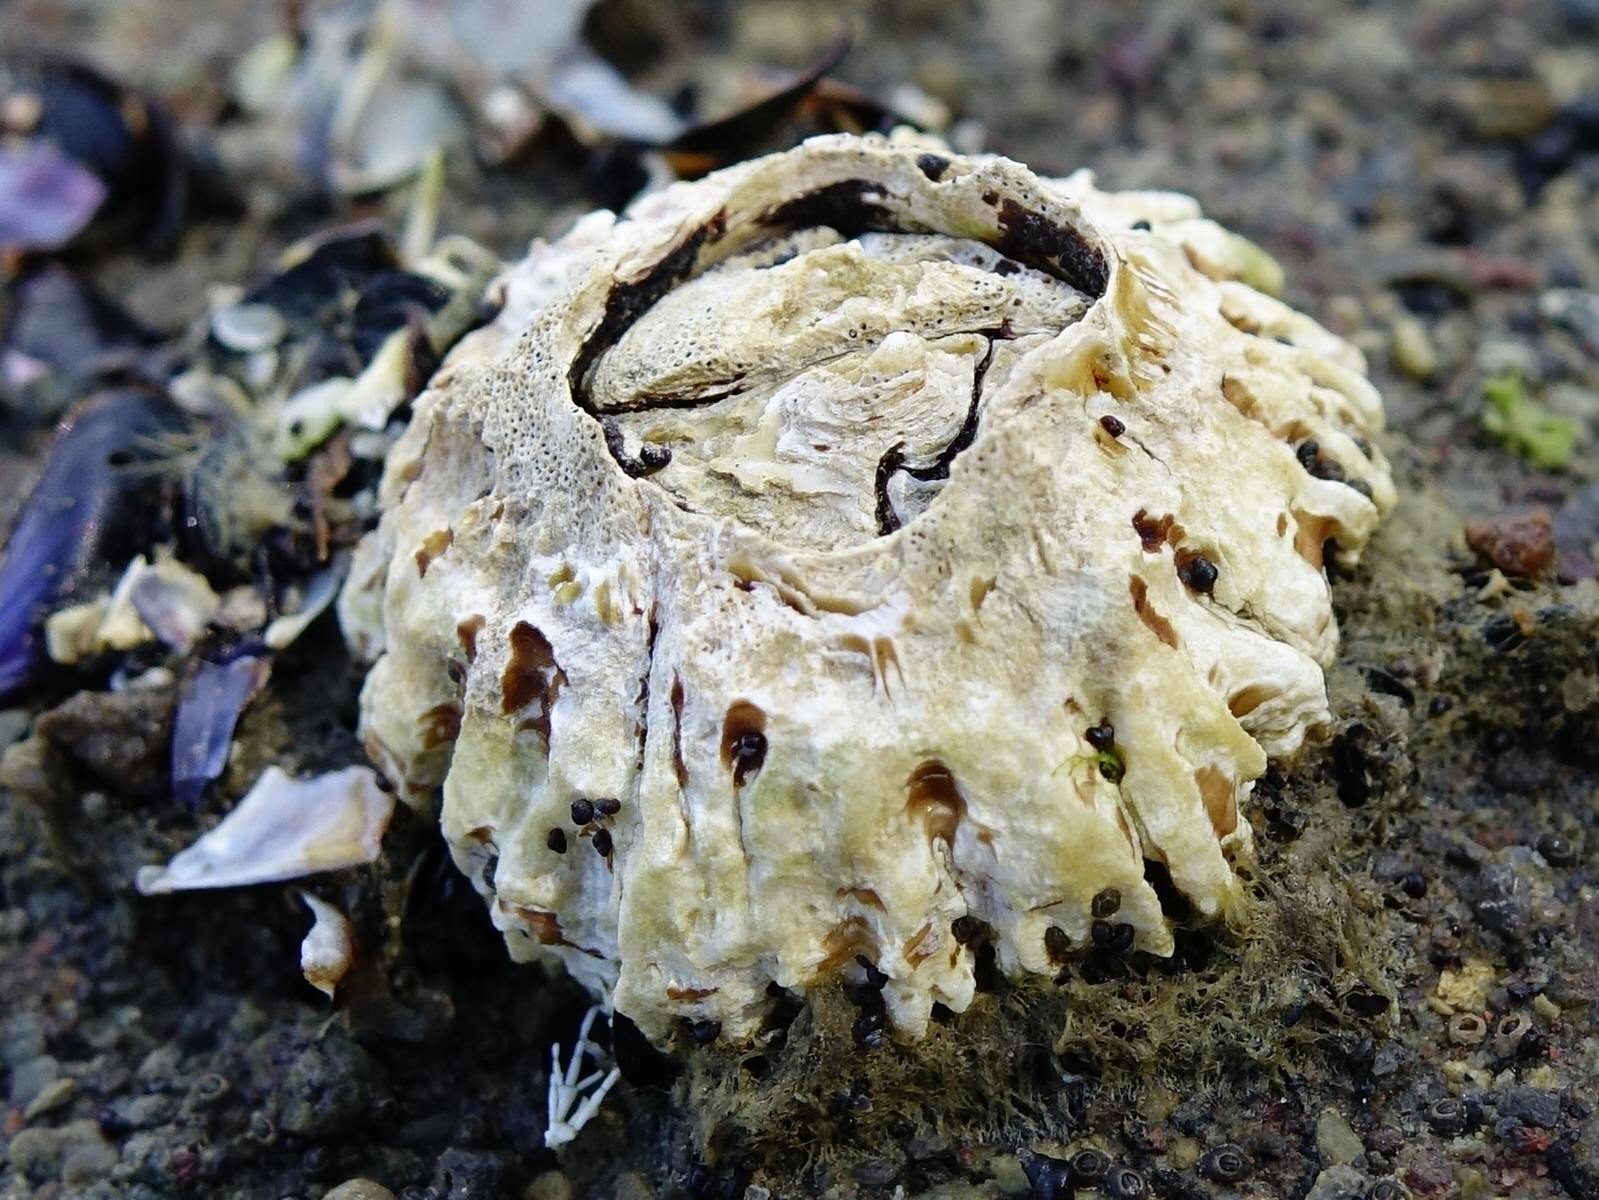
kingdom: Animalia
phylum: Arthropoda
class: Maxillopoda
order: Sessilia
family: Tetraclitidae
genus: Epopella
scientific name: Epopella plicata
